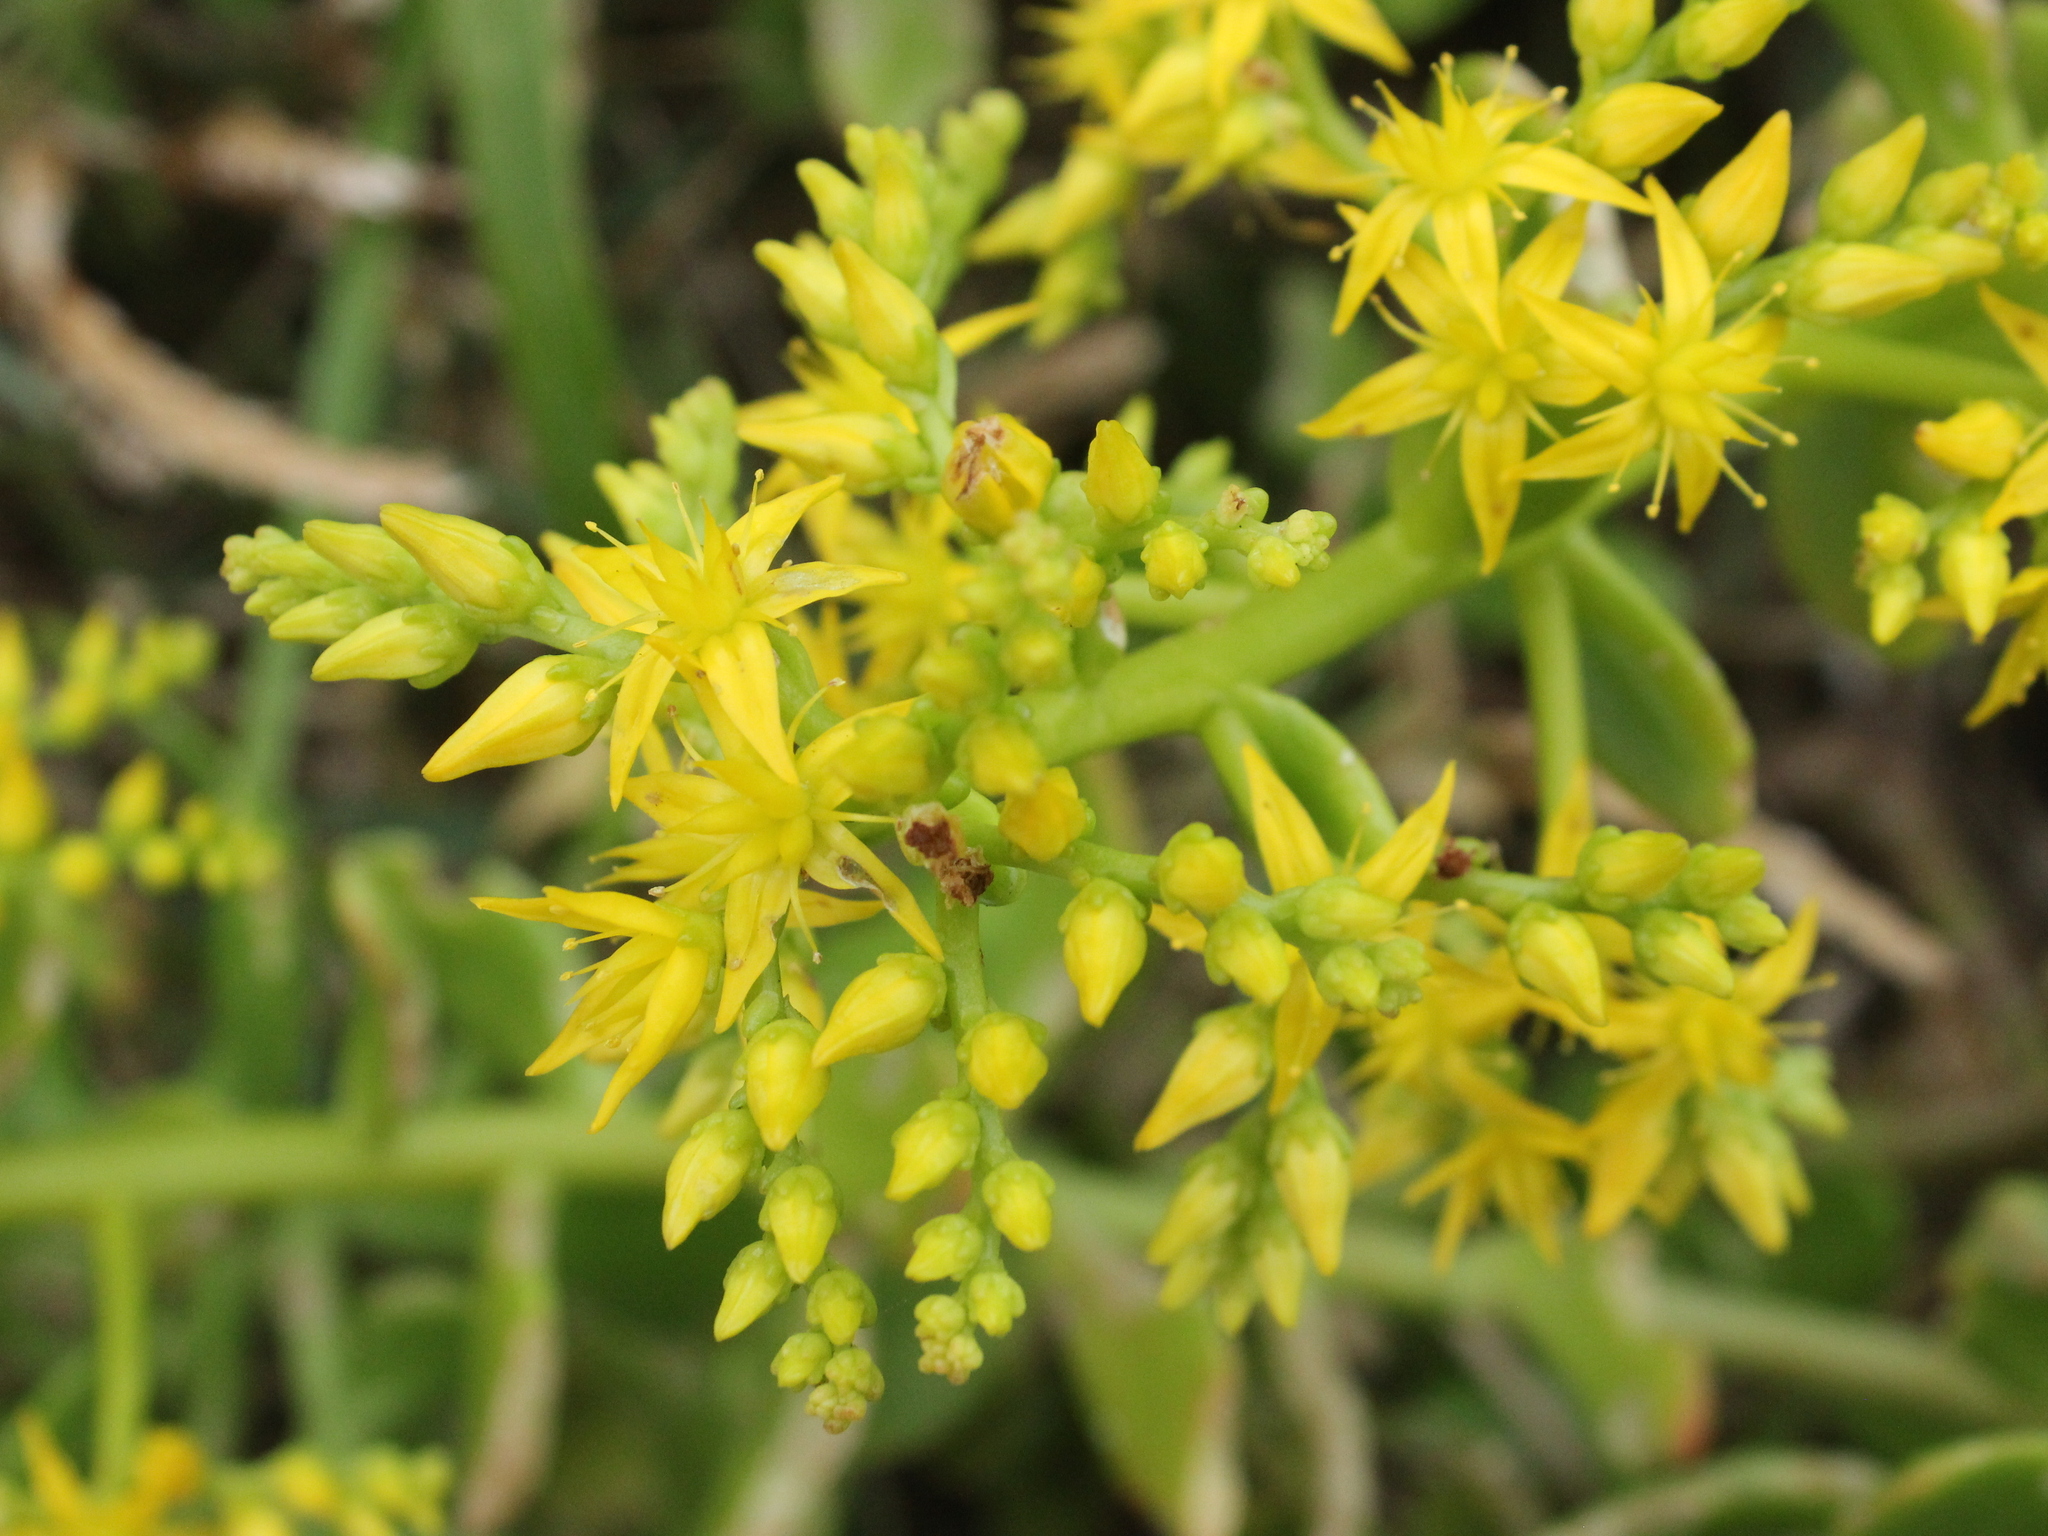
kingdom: Plantae
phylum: Tracheophyta
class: Magnoliopsida
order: Saxifragales
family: Crassulaceae
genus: Sedum
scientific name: Sedum praealtum
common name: Greater mexican-stonecrop
